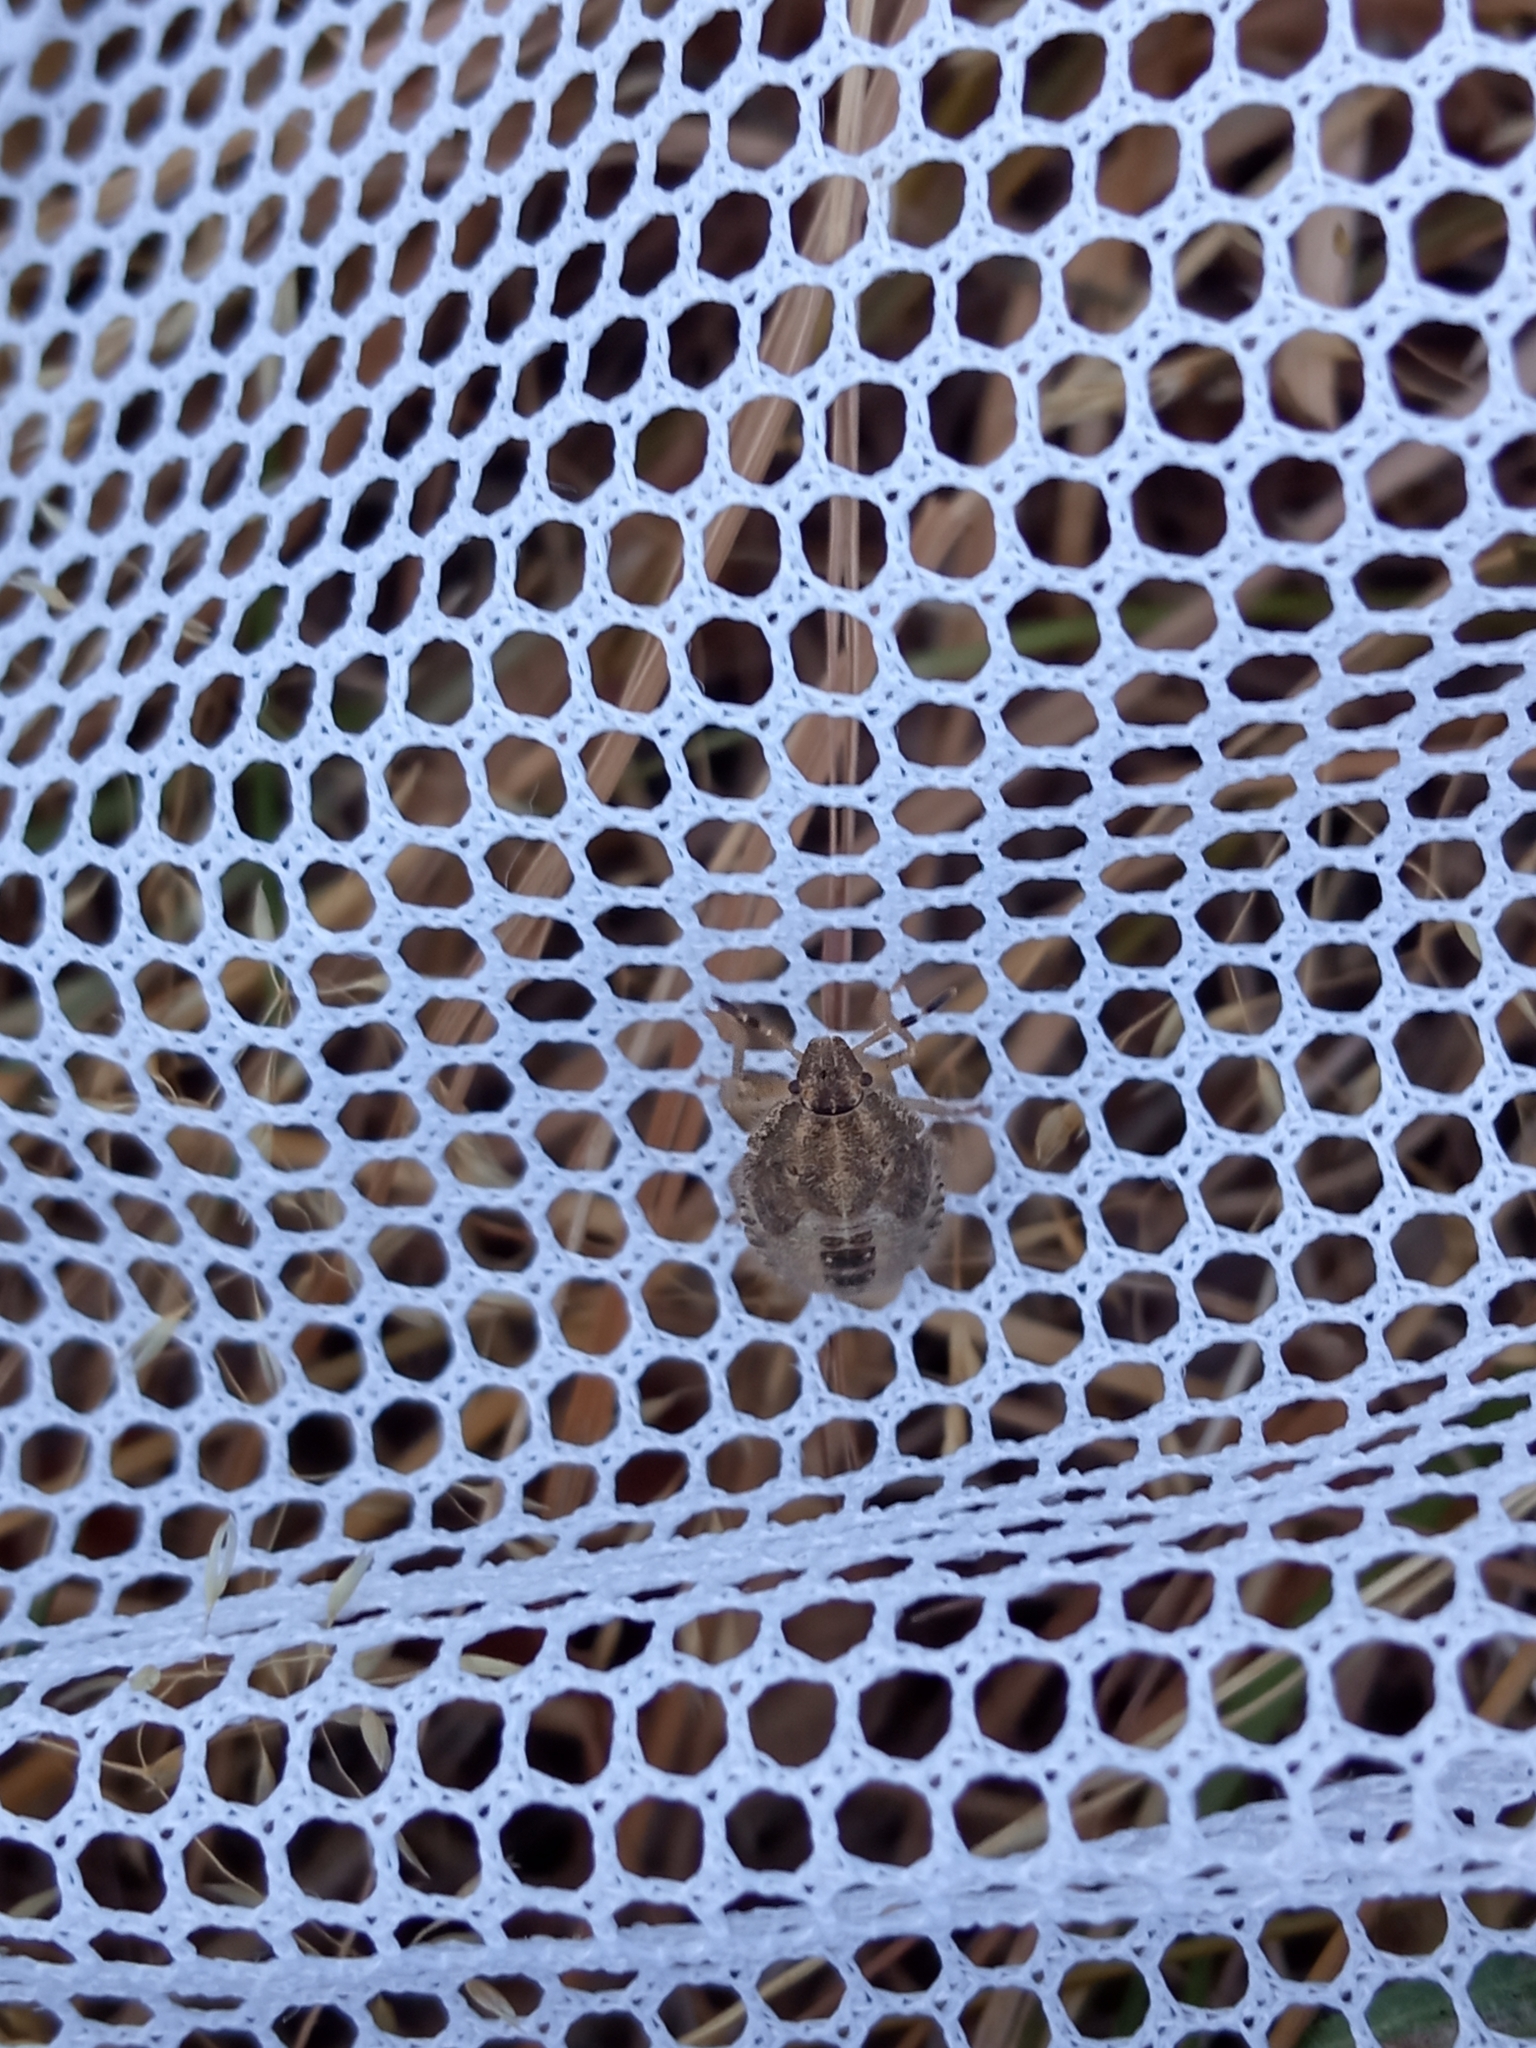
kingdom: Animalia
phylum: Arthropoda
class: Insecta
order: Hemiptera
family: Pentatomidae
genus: Dolycoris
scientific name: Dolycoris baccarum
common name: Sloe bug
